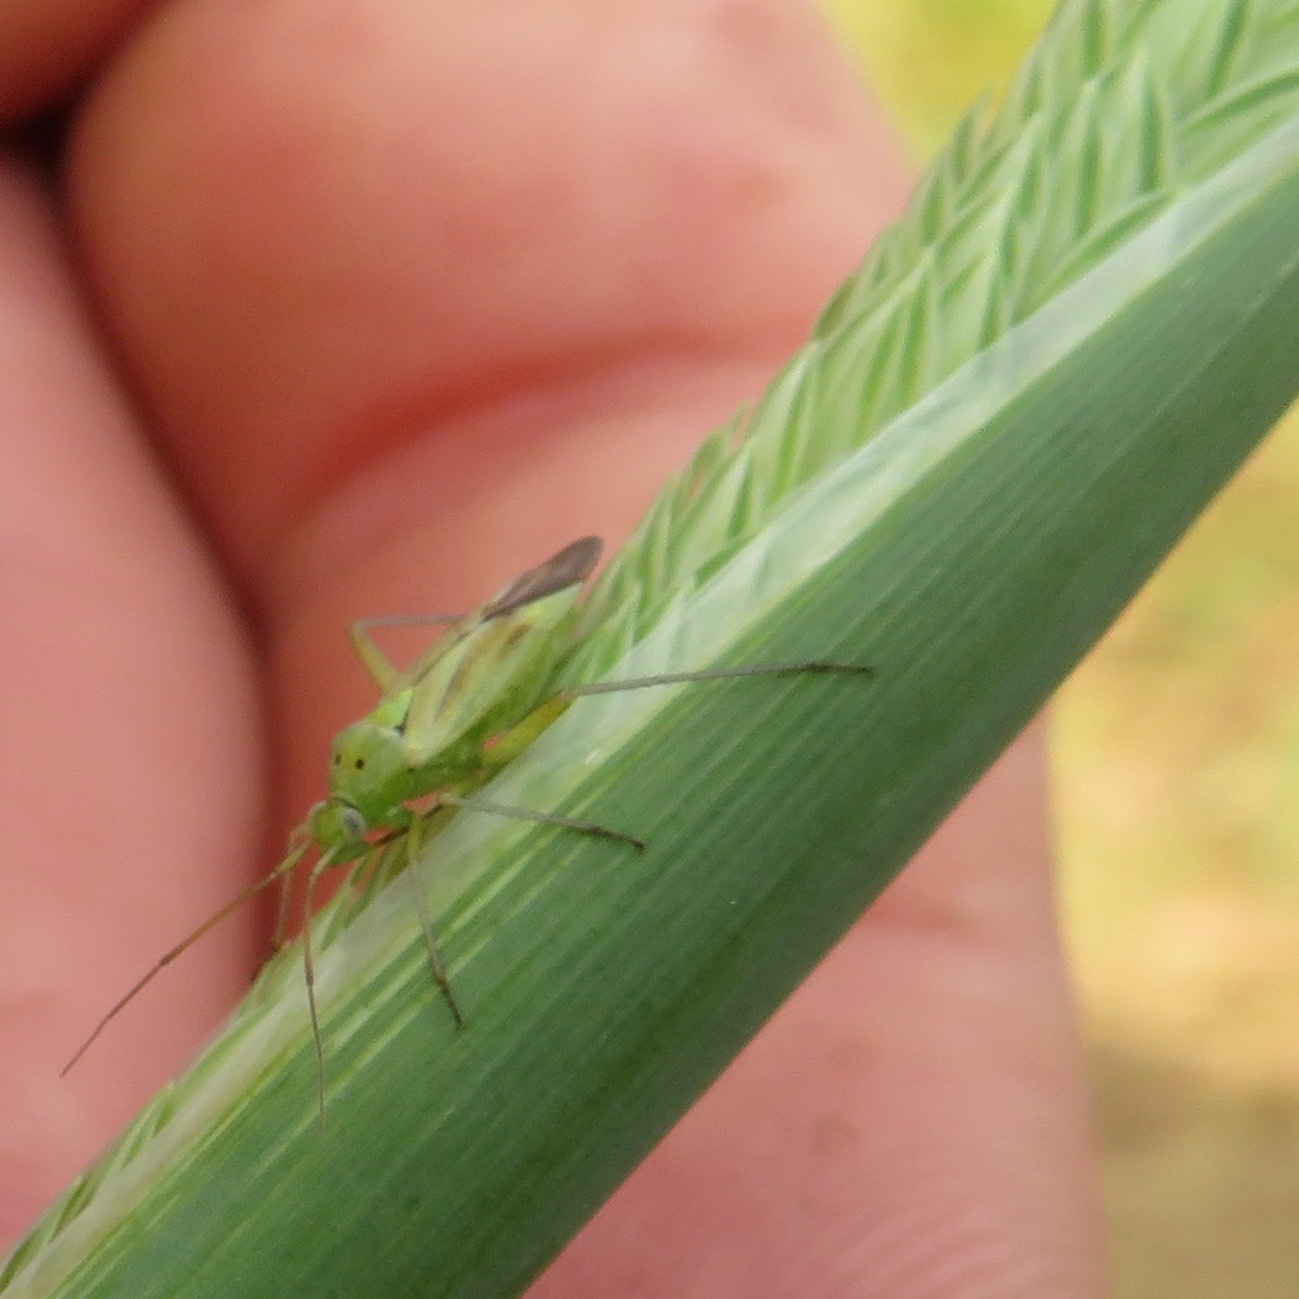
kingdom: Animalia
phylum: Arthropoda
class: Insecta
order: Hemiptera
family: Miridae
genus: Closterotomus
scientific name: Closterotomus norvegicus
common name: Plant bug
